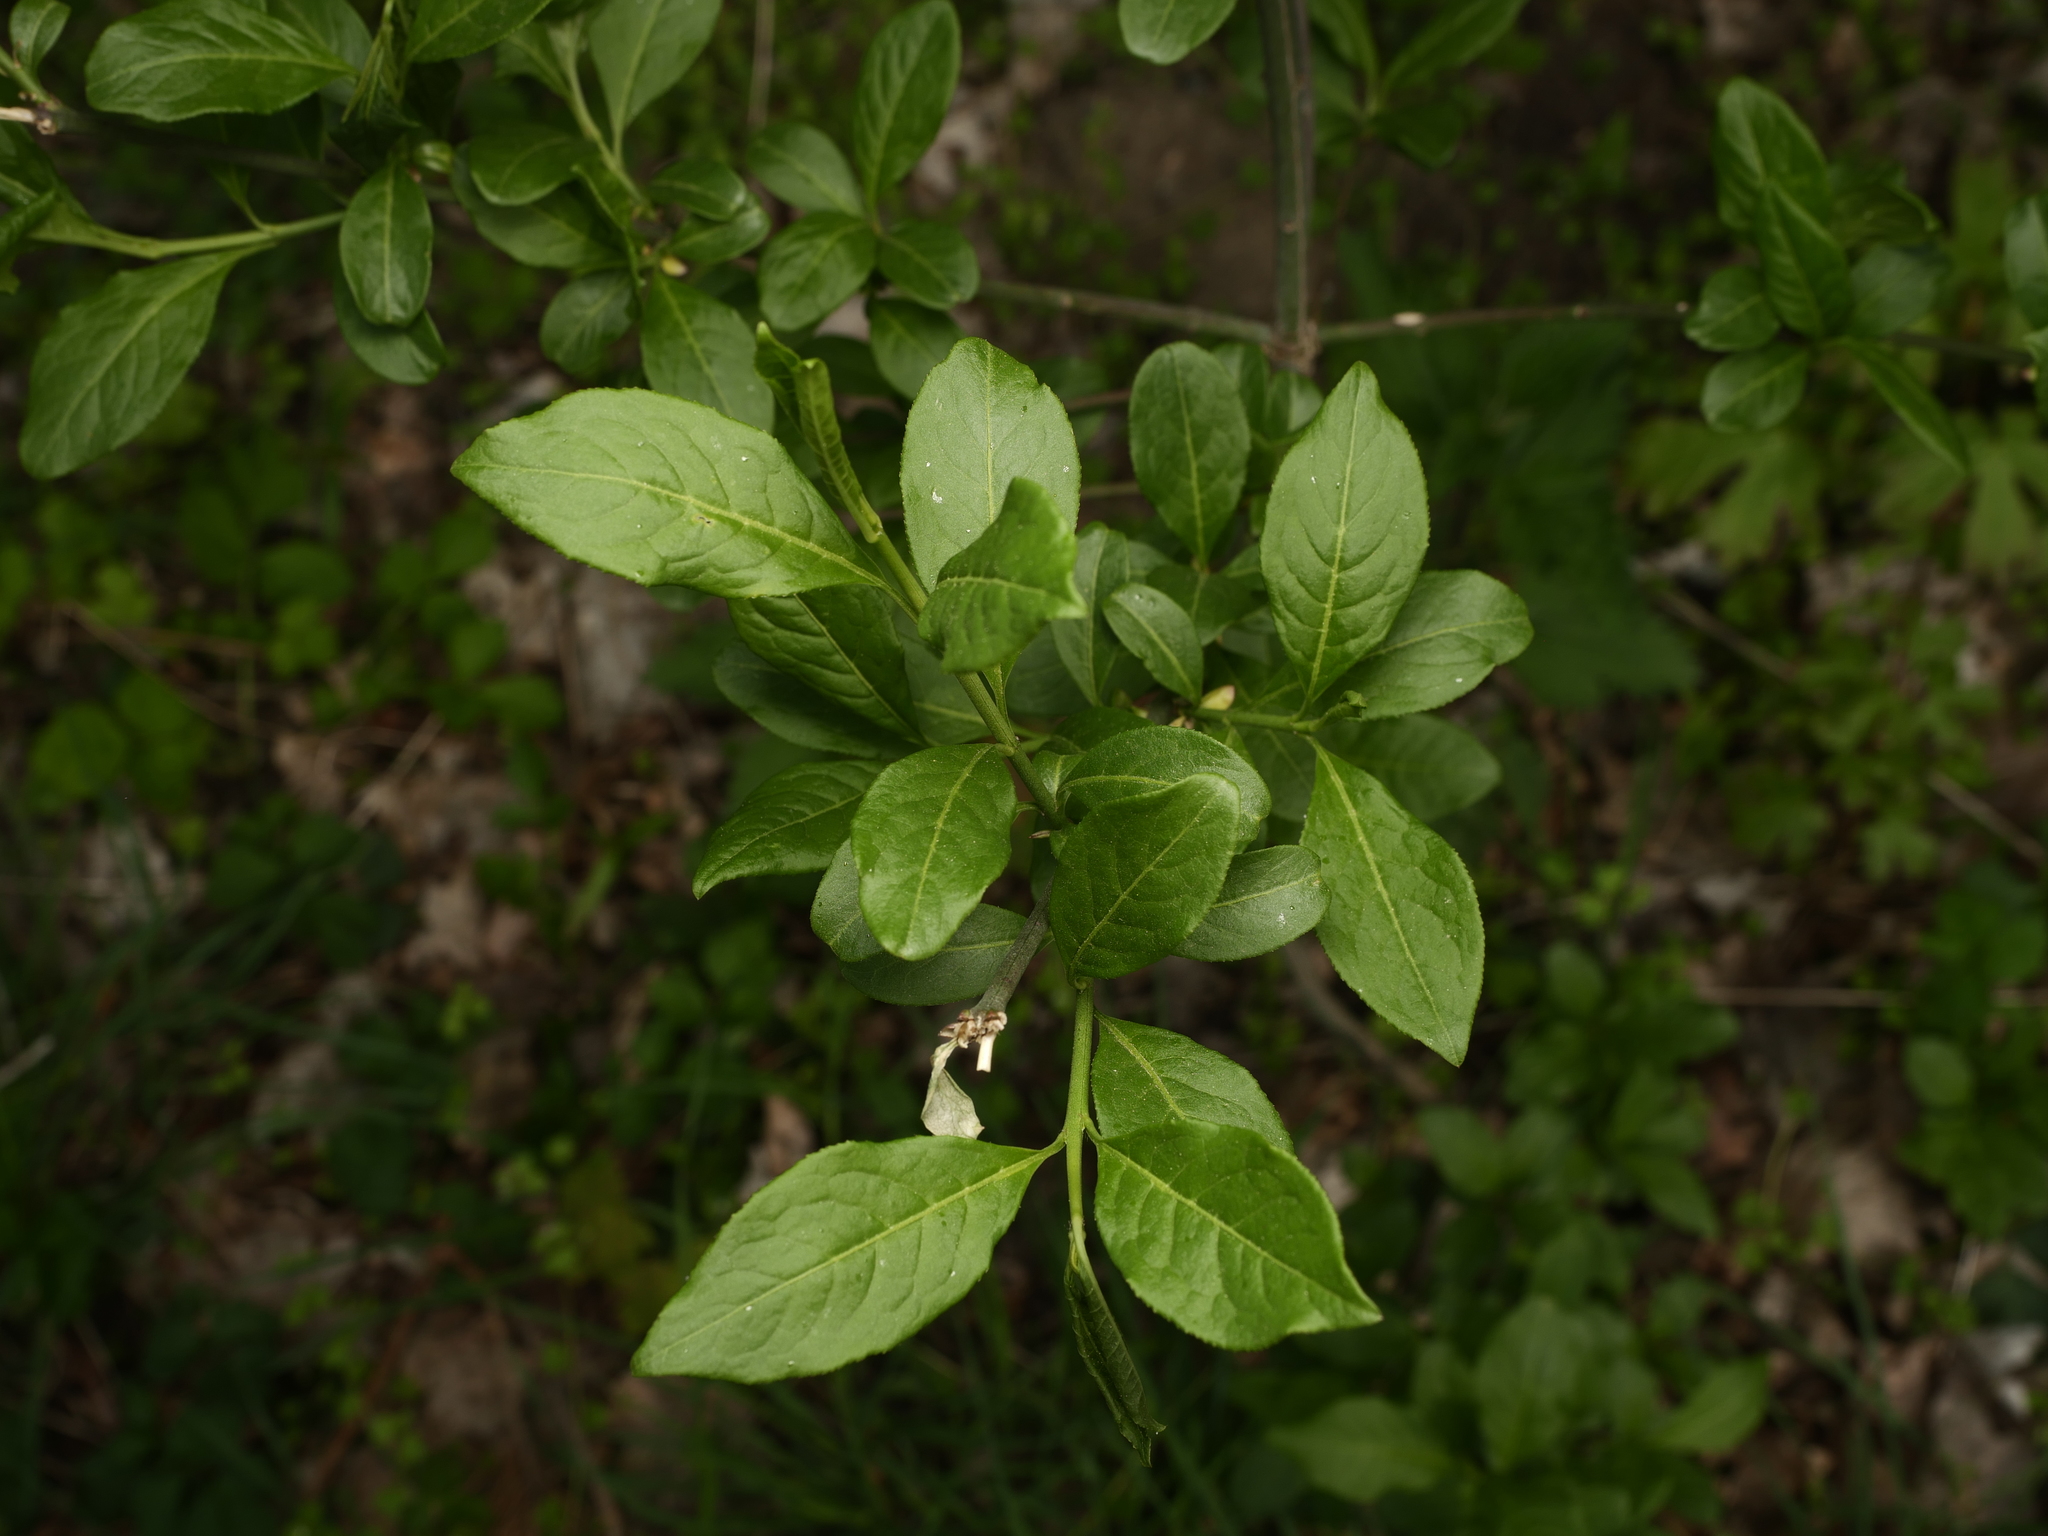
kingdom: Plantae
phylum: Tracheophyta
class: Magnoliopsida
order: Celastrales
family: Celastraceae
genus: Euonymus
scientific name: Euonymus europaeus
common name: Spindle
